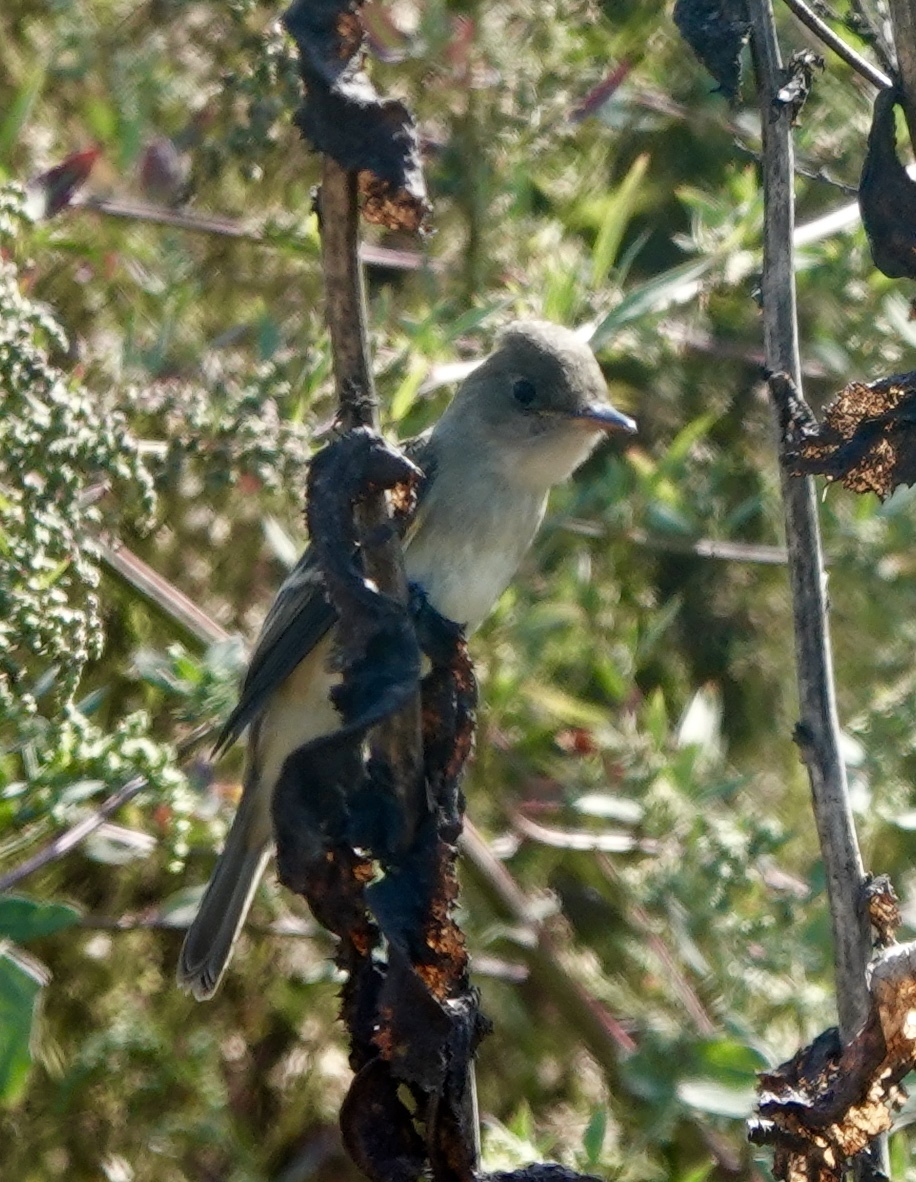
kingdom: Animalia
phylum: Chordata
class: Aves
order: Passeriformes
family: Tyrannidae
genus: Empidonax
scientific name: Empidonax traillii
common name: Willow flycatcher
